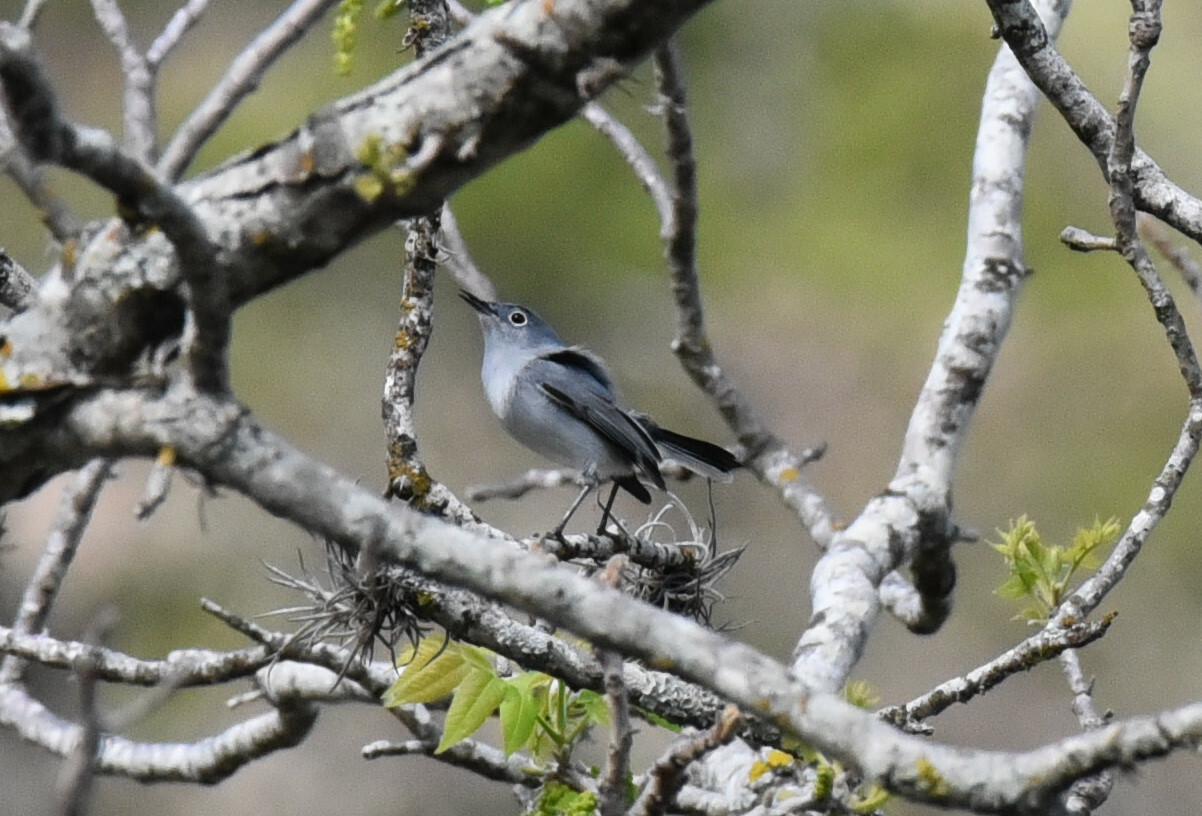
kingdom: Animalia
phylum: Chordata
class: Aves
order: Passeriformes
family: Polioptilidae
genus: Polioptila
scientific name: Polioptila caerulea
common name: Blue-gray gnatcatcher
